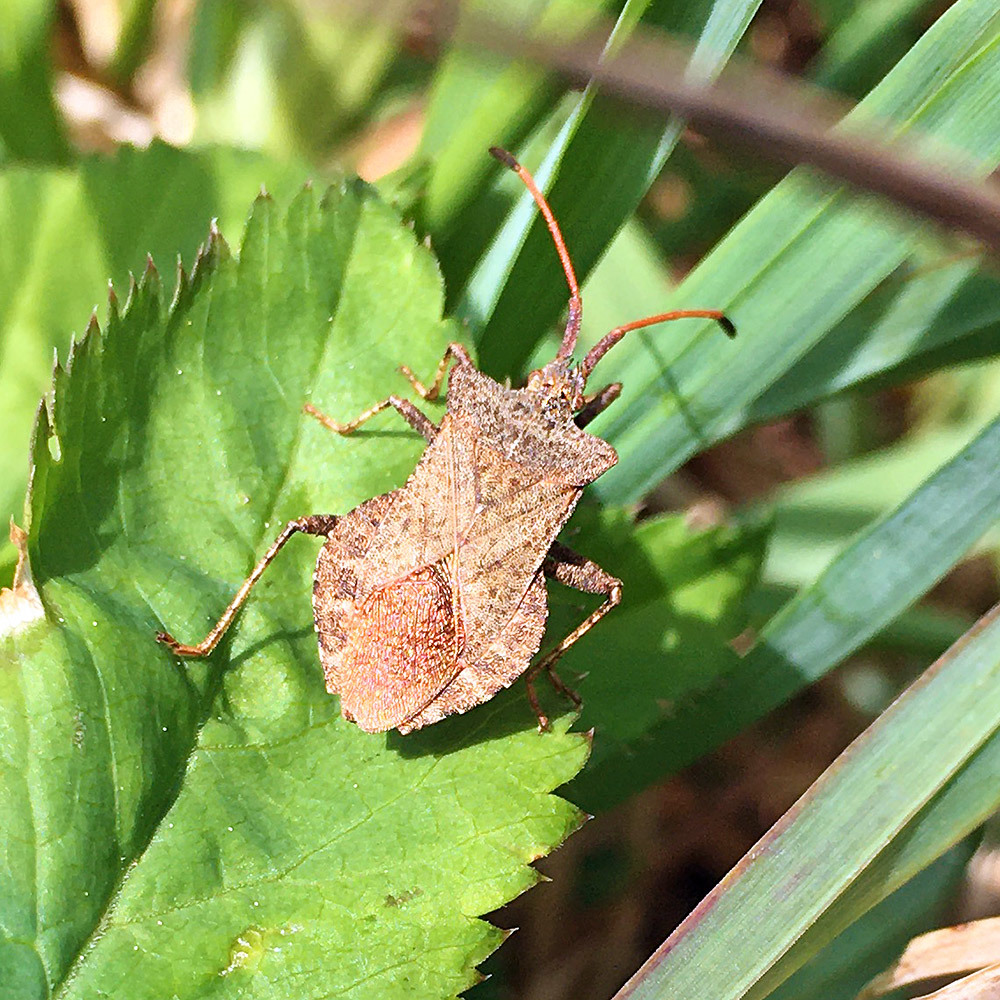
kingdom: Animalia
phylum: Arthropoda
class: Insecta
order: Hemiptera
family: Coreidae
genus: Coreus
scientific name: Coreus marginatus
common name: Dock bug
